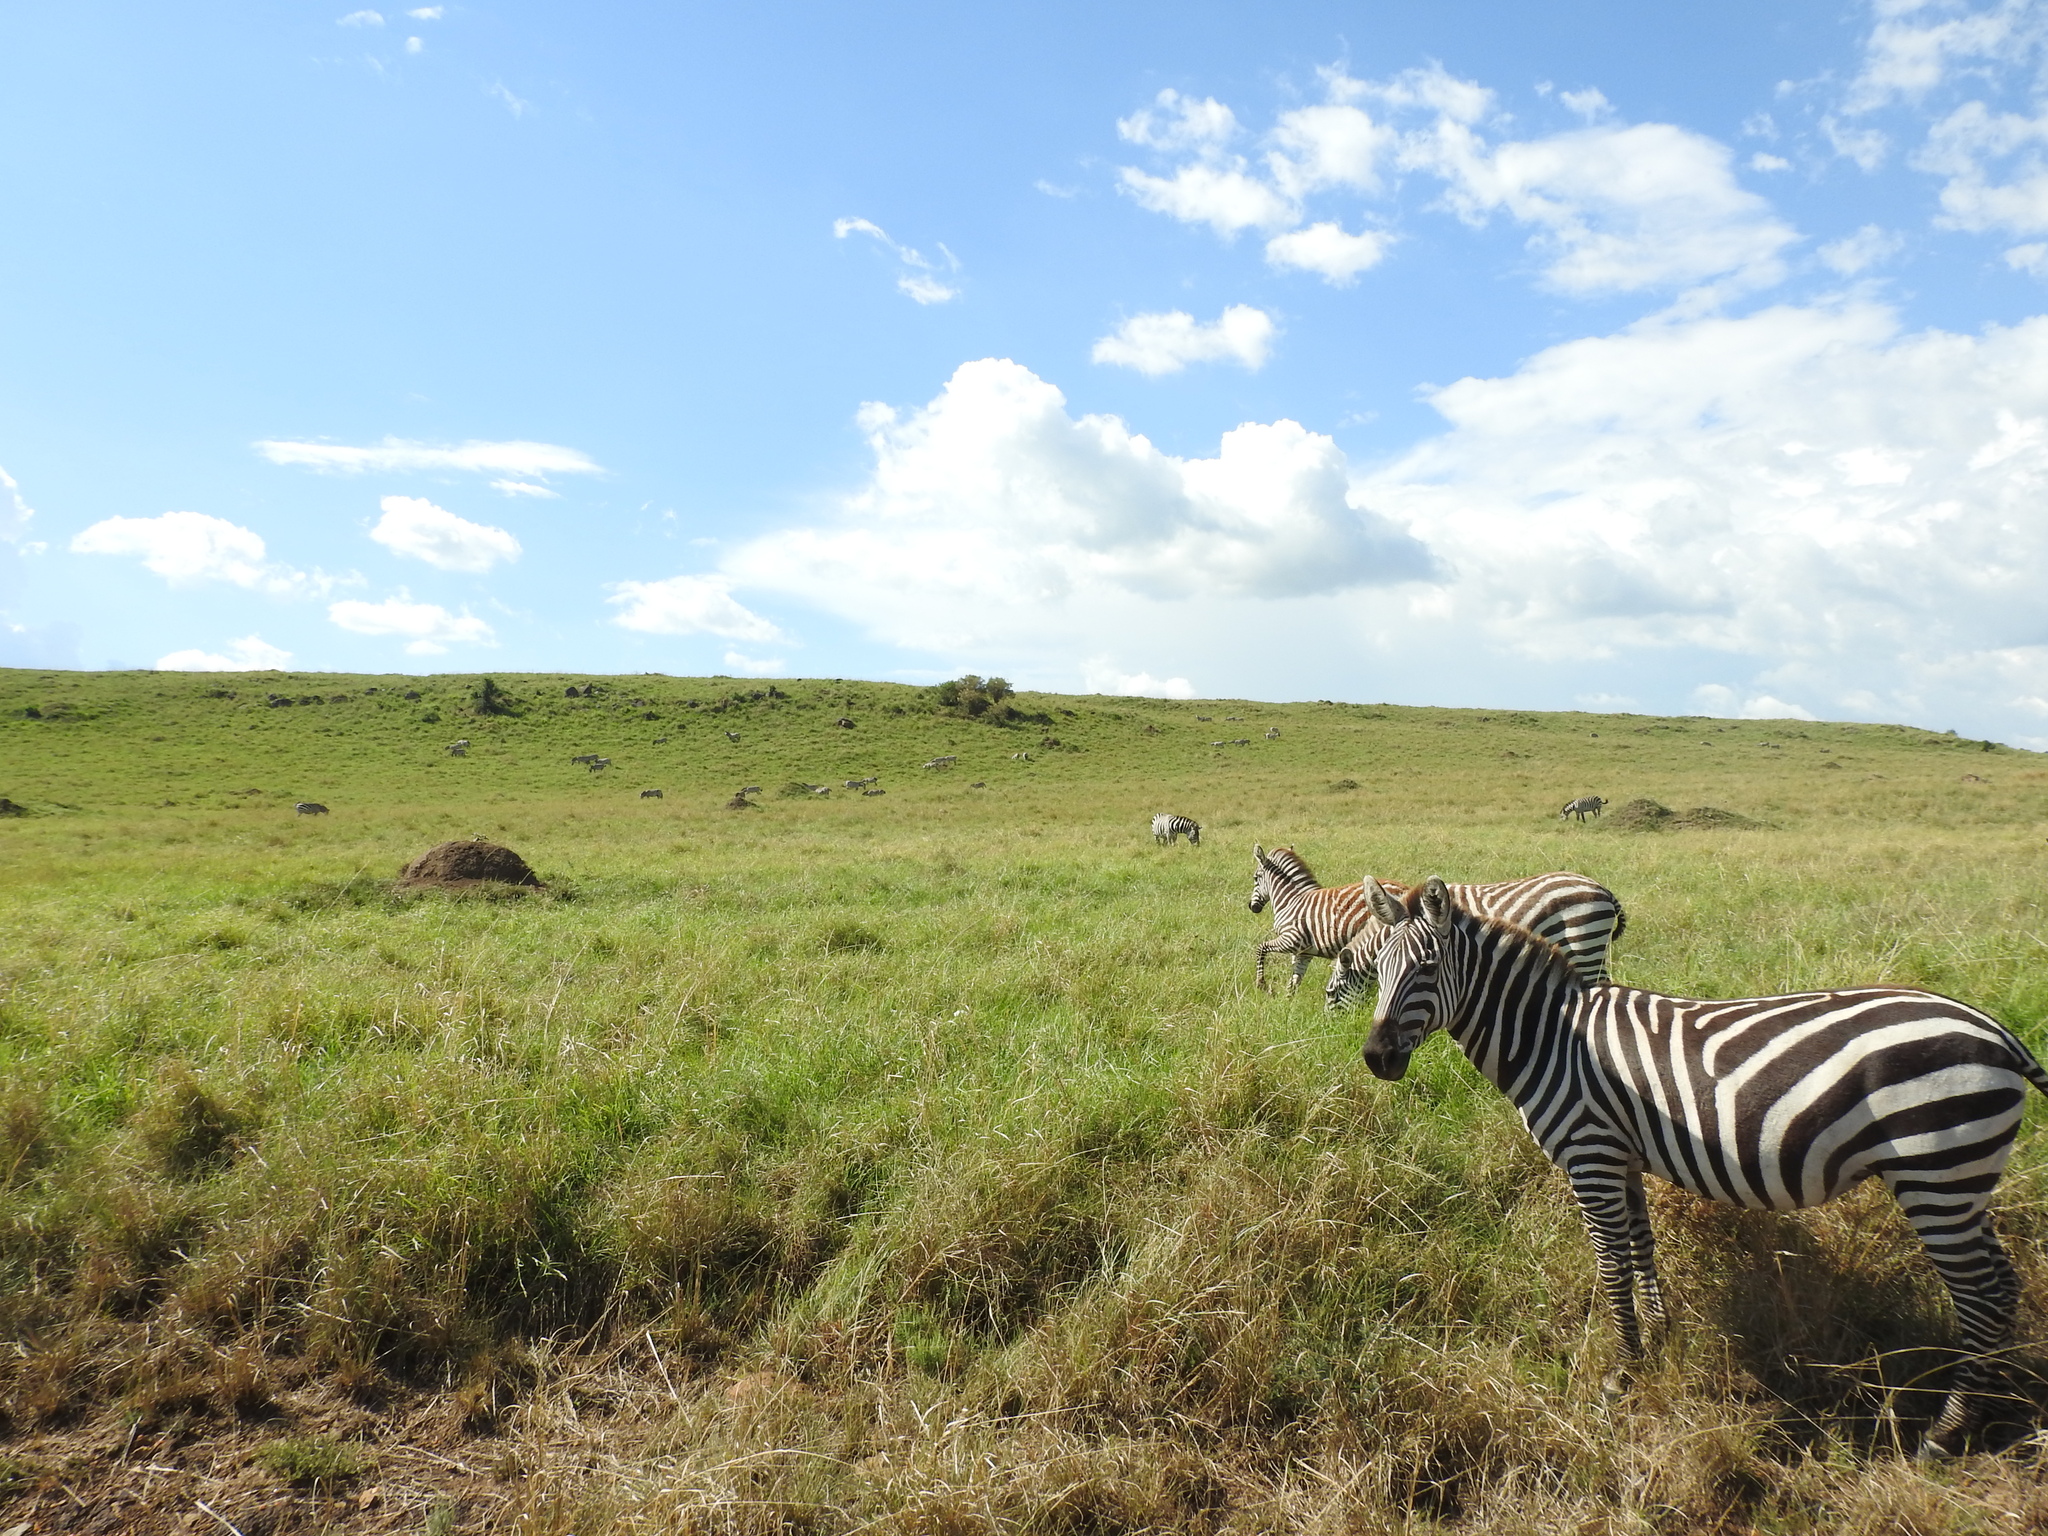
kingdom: Animalia
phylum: Chordata
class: Mammalia
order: Perissodactyla
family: Equidae
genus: Equus
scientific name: Equus quagga
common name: Plains zebra
